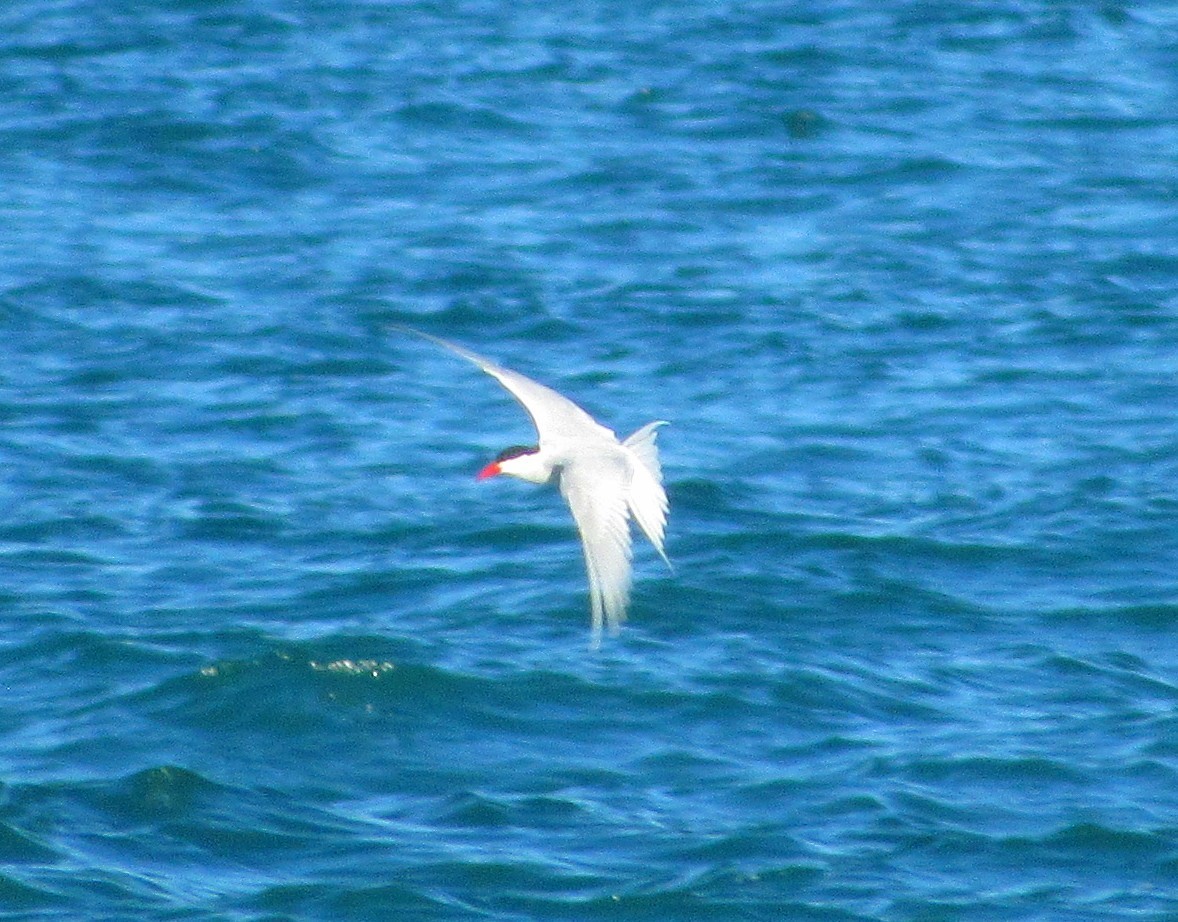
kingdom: Animalia
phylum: Chordata
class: Aves
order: Charadriiformes
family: Laridae
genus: Sterna
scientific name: Sterna hirundinacea
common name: South american tern
